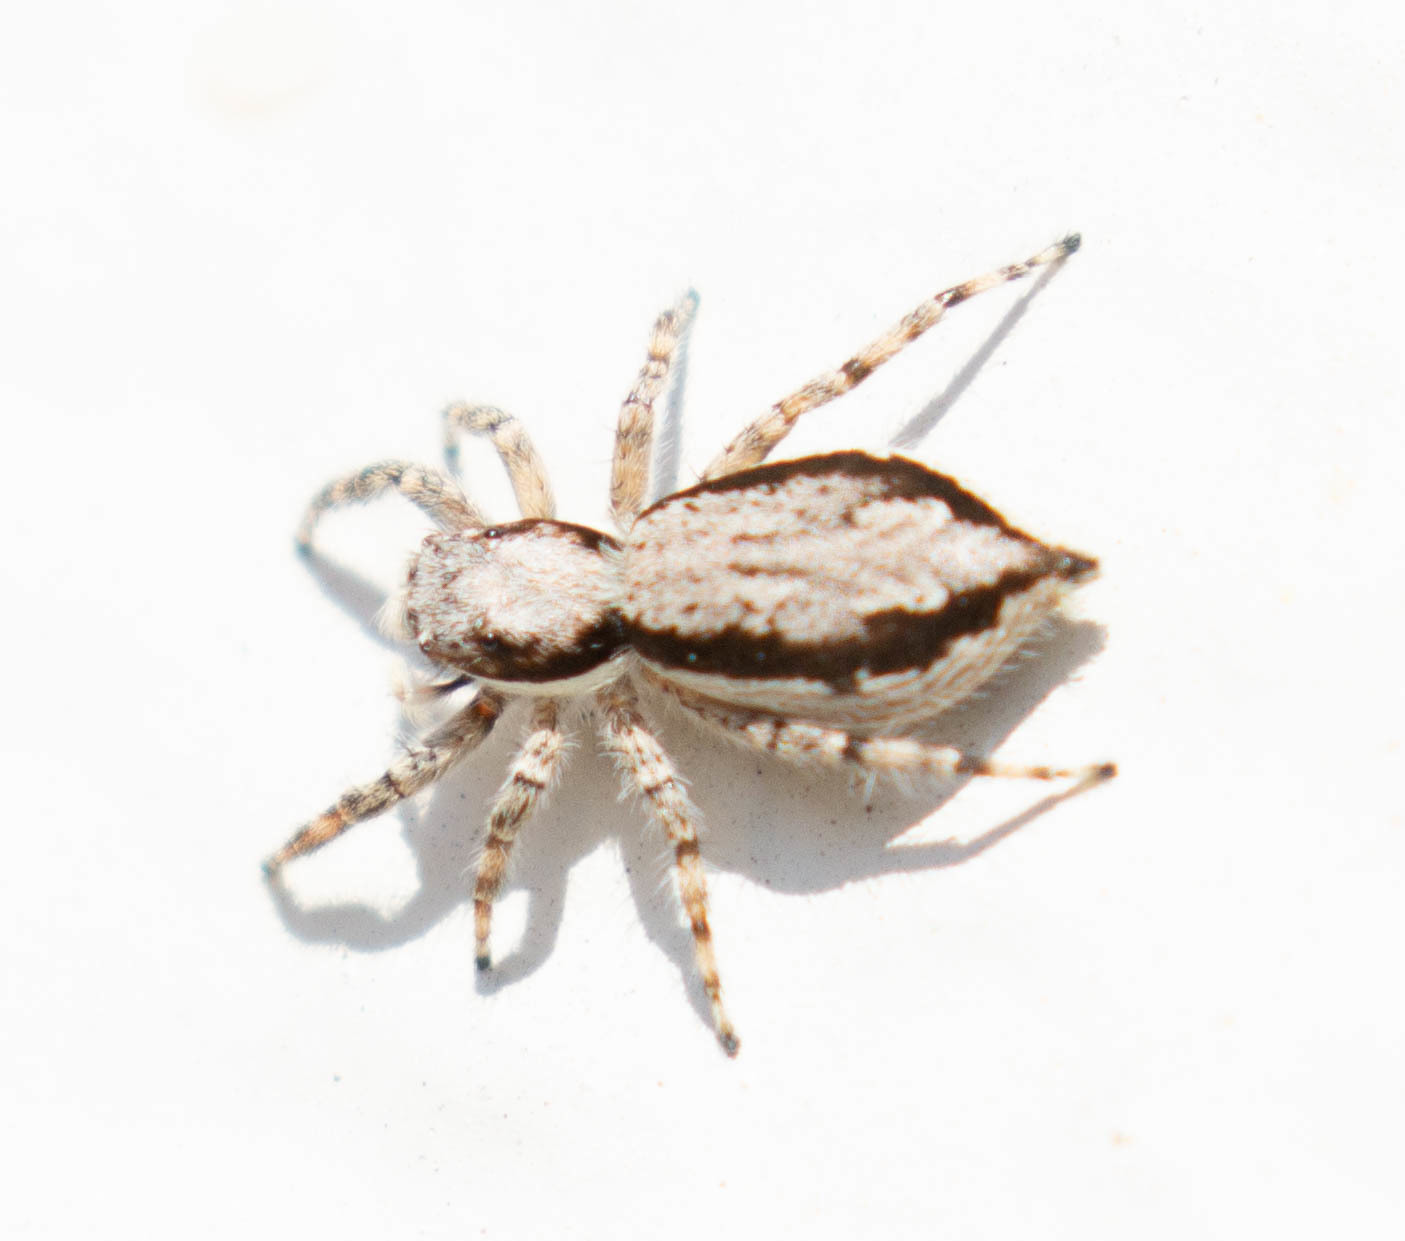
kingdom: Animalia
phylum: Arthropoda
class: Arachnida
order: Araneae
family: Salticidae
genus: Menemerus
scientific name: Menemerus bivittatus
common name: Gray wall jumper
